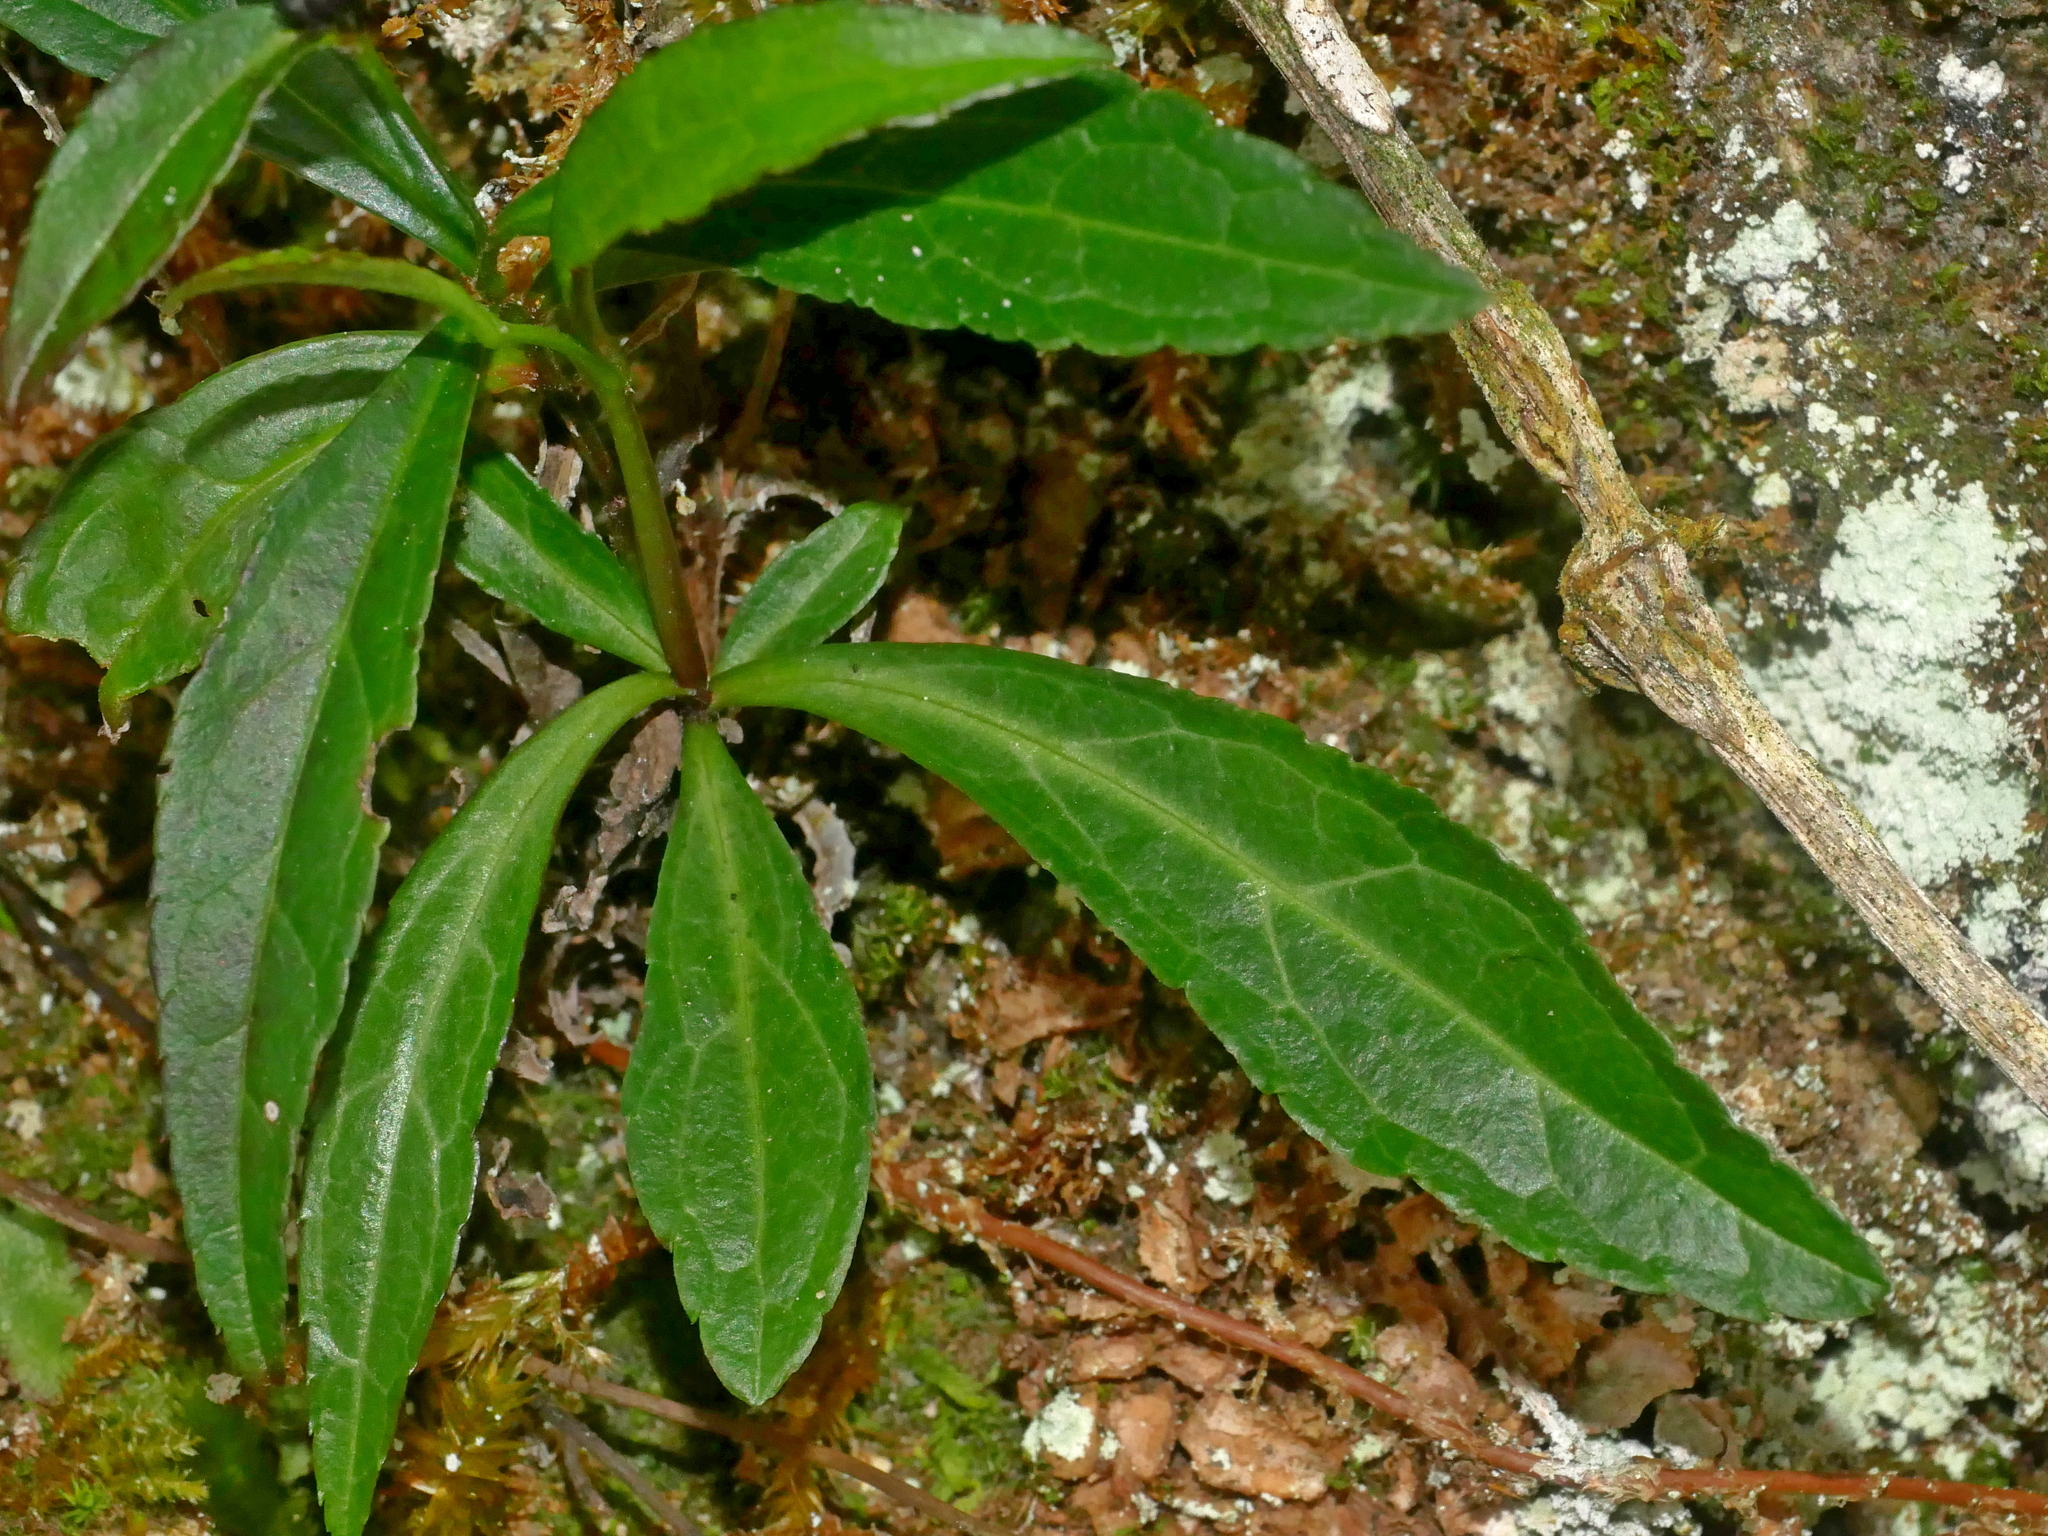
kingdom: Plantae
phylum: Tracheophyta
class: Magnoliopsida
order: Lamiales
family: Plantaginaceae
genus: Veronicastrum
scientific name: Veronicastrum formosanum
